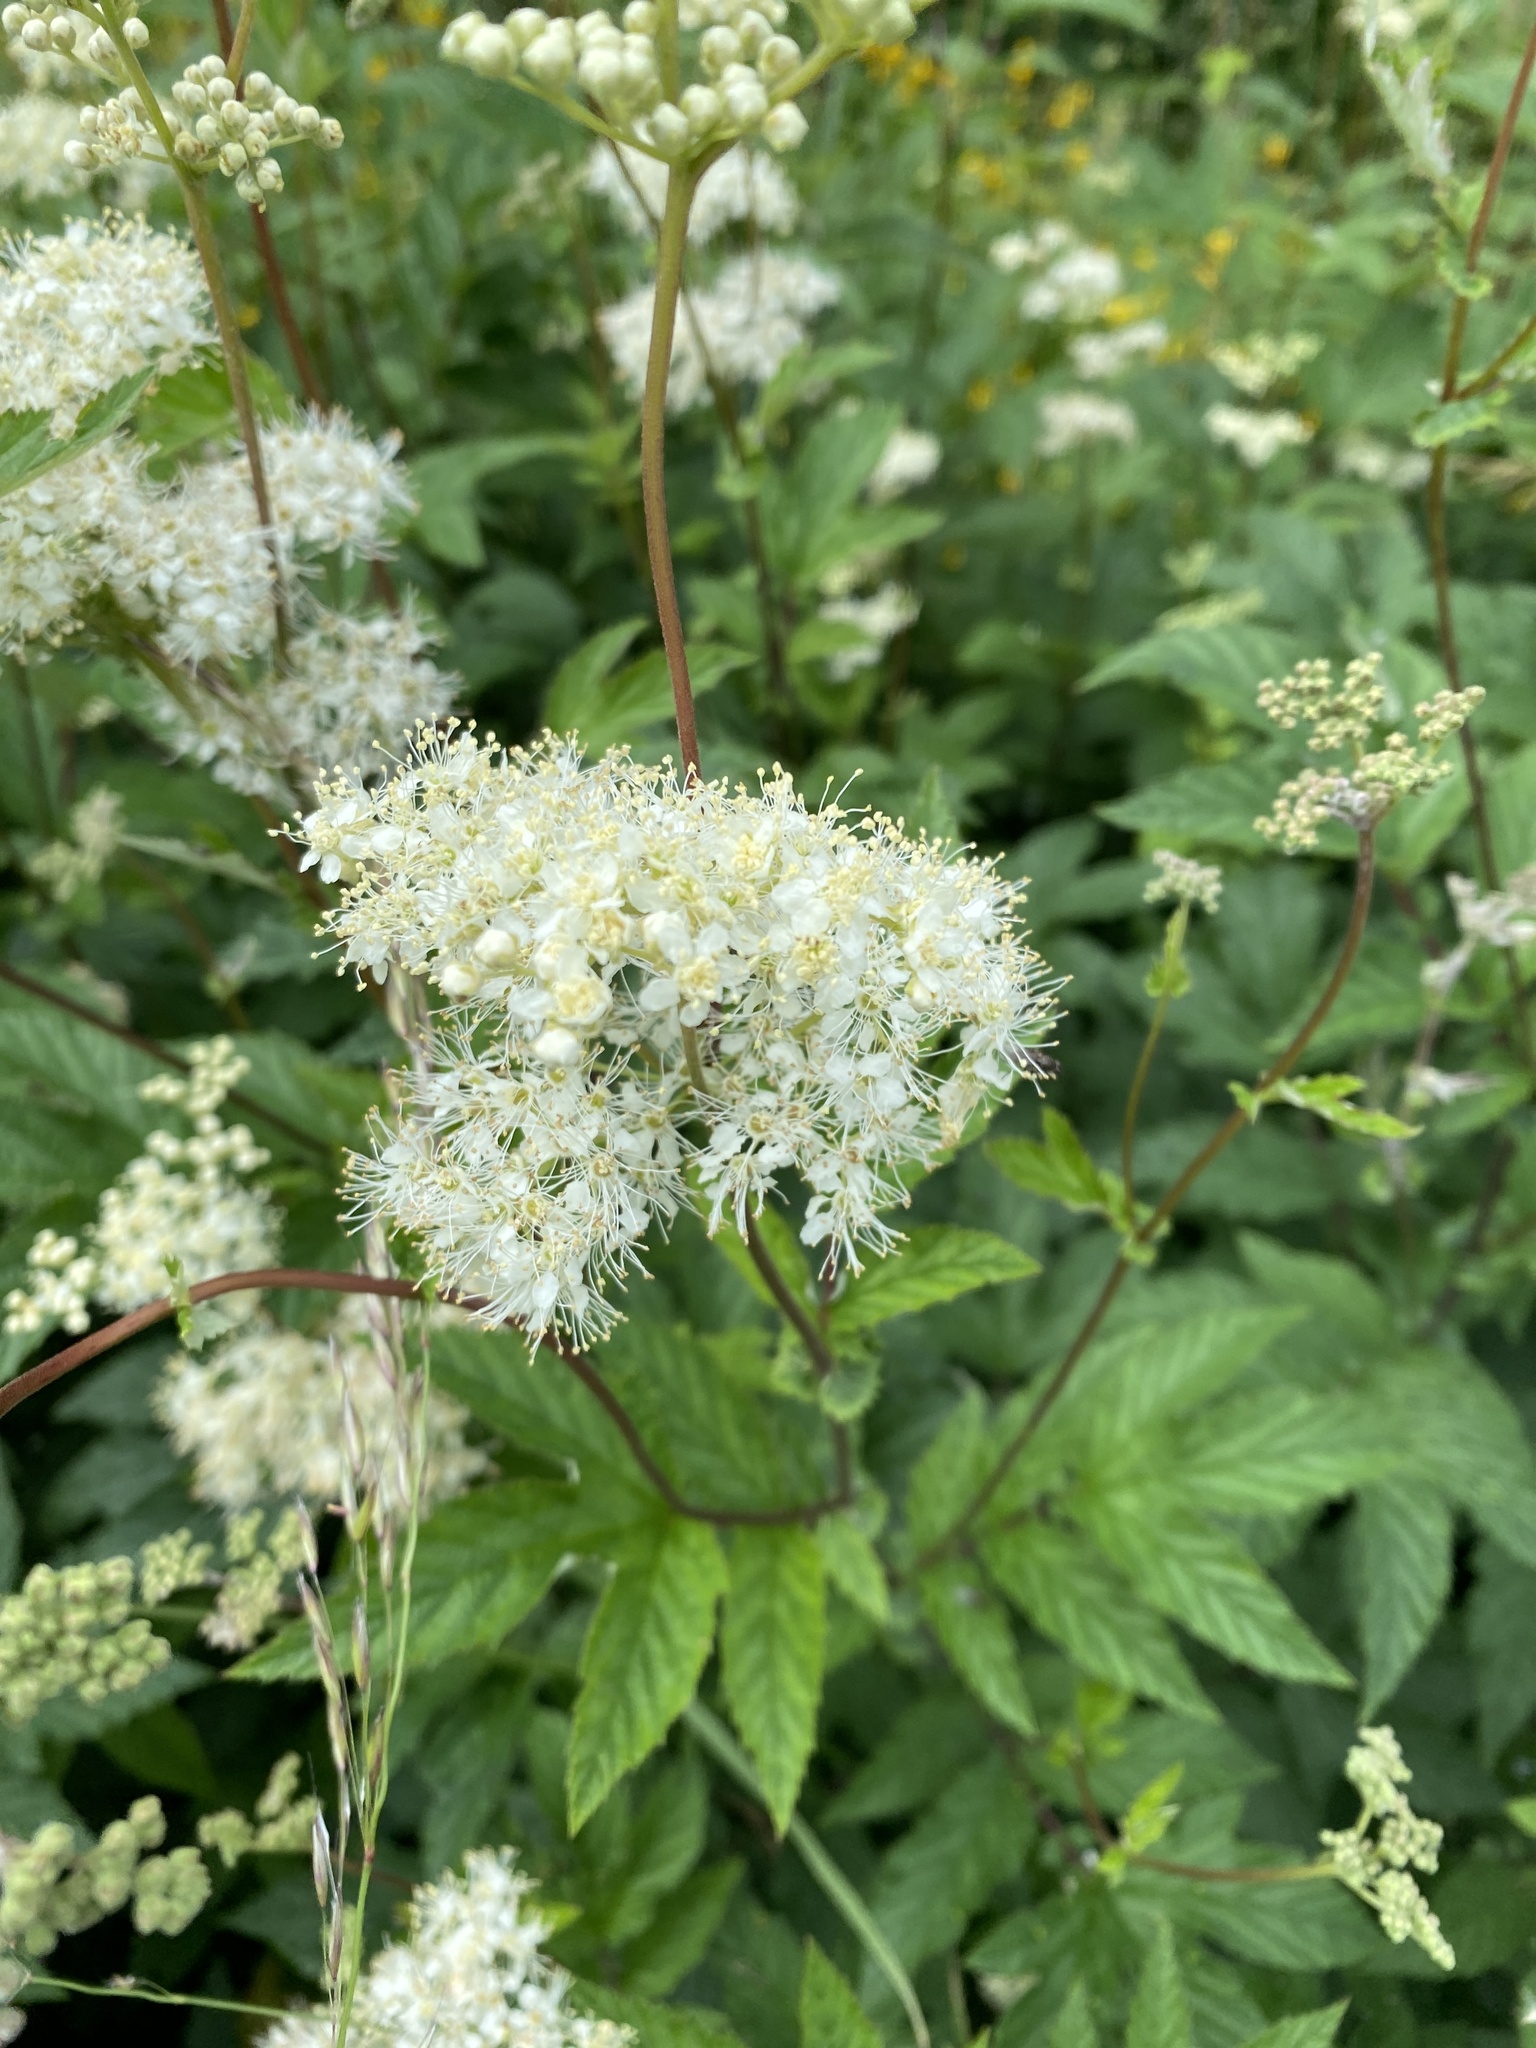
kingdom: Plantae
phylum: Tracheophyta
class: Magnoliopsida
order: Rosales
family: Rosaceae
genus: Filipendula
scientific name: Filipendula ulmaria
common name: Meadowsweet
